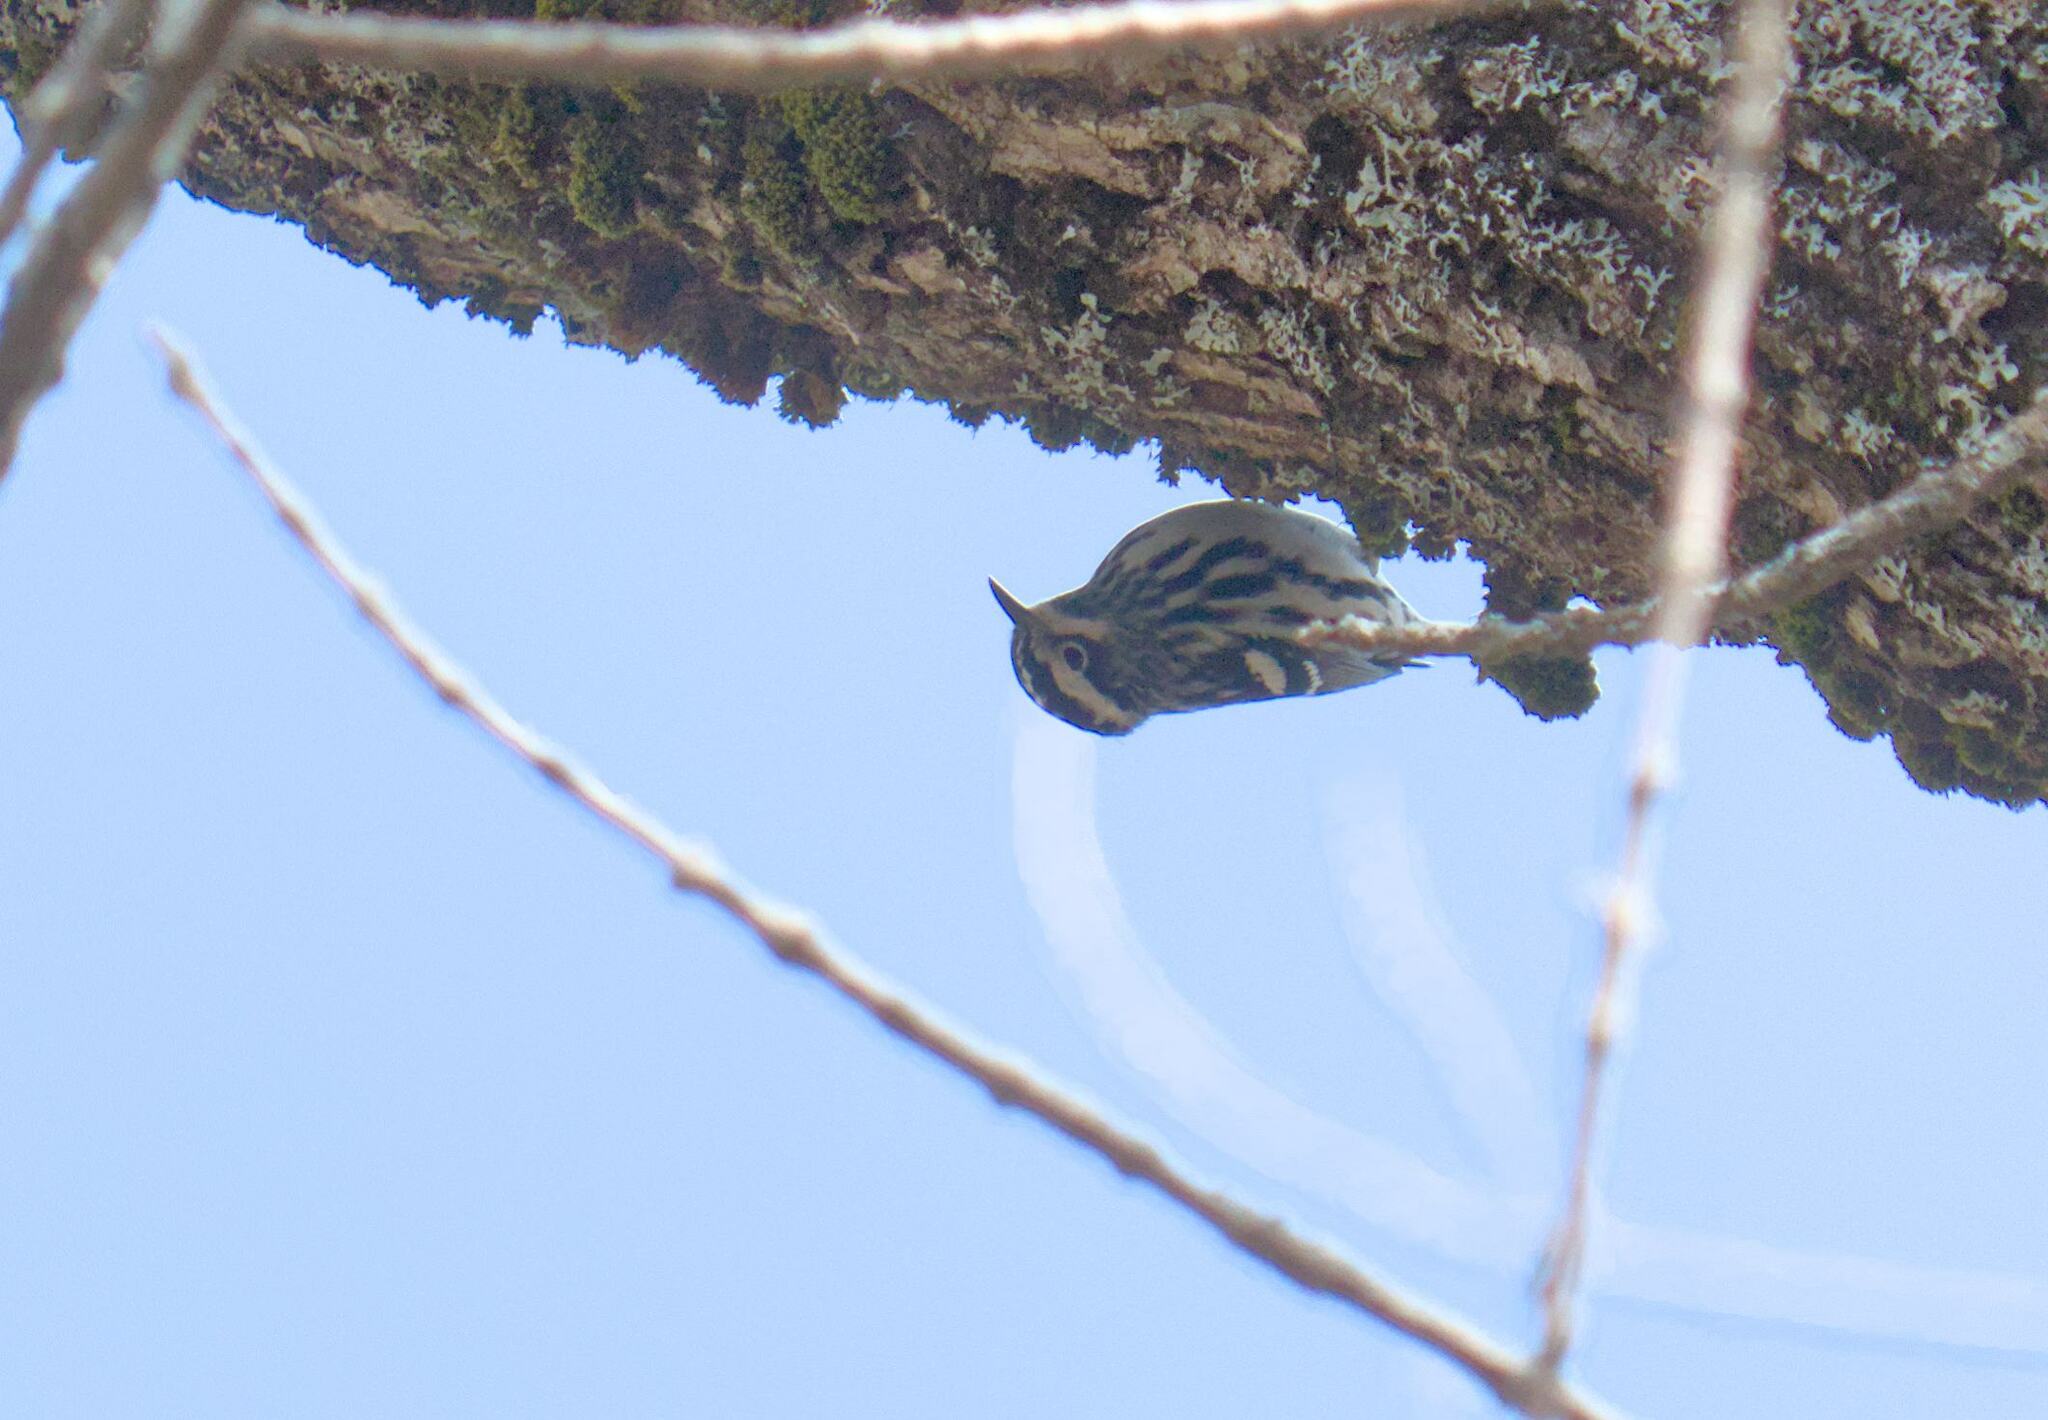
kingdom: Animalia
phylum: Chordata
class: Aves
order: Passeriformes
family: Parulidae
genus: Mniotilta
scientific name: Mniotilta varia
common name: Black-and-white warbler
